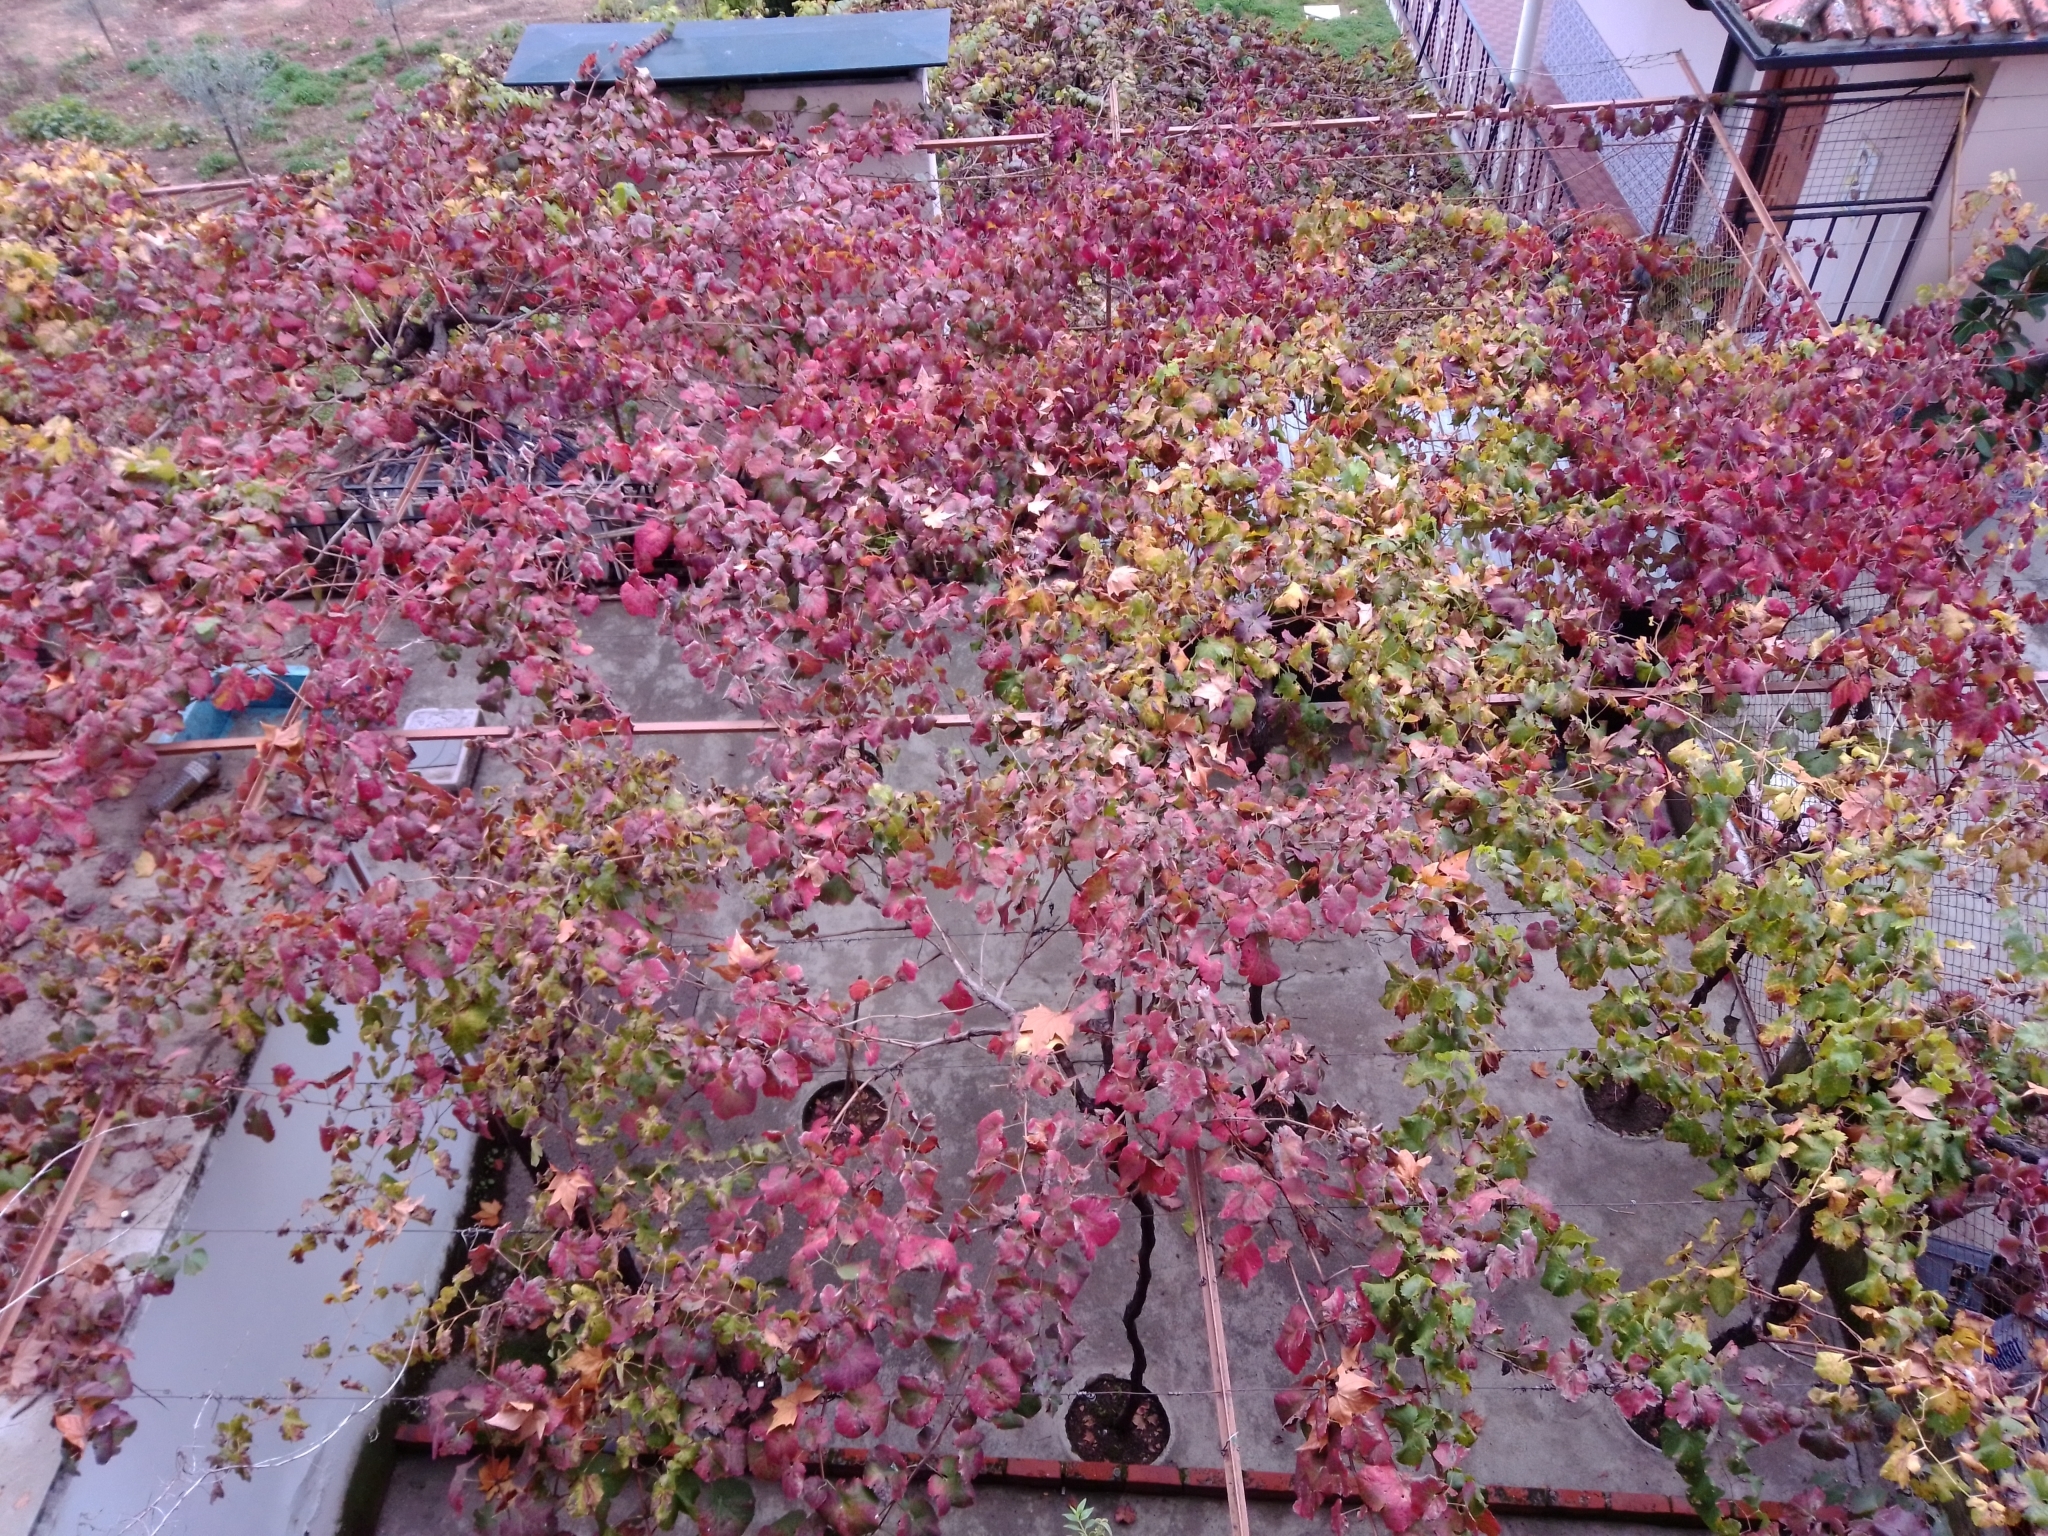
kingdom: Plantae
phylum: Tracheophyta
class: Magnoliopsida
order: Vitales
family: Vitaceae
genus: Vitis
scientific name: Vitis vinifera
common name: Grape-vine
